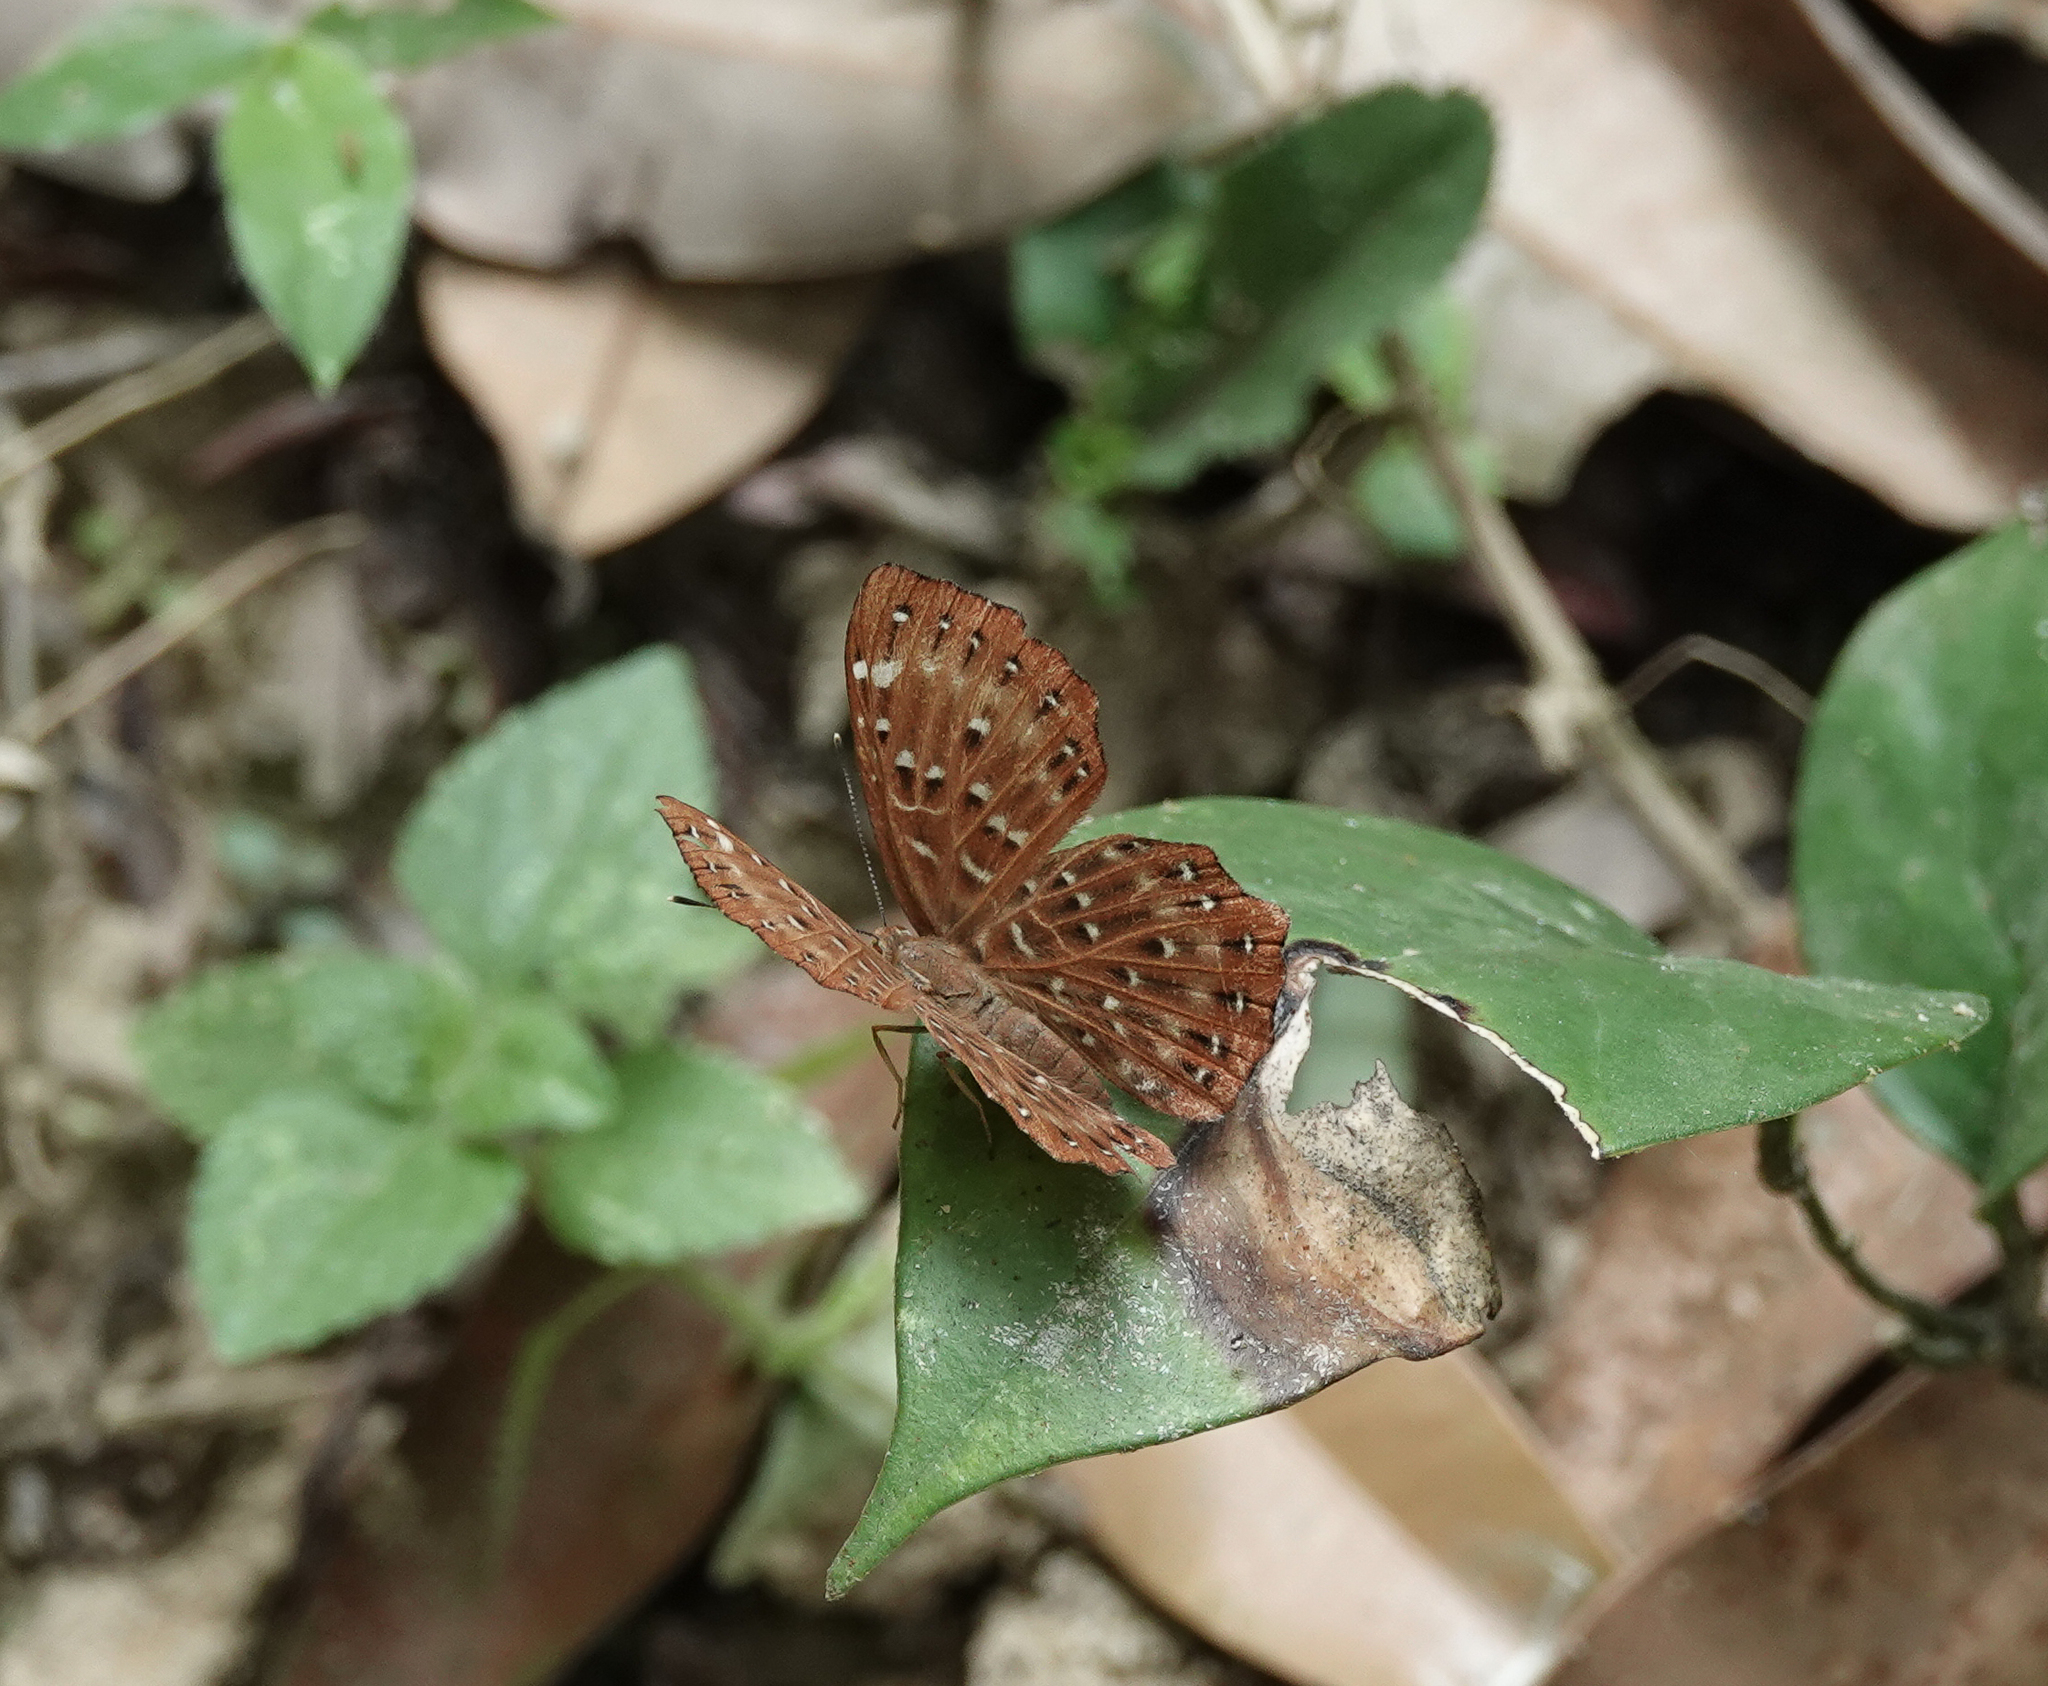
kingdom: Animalia
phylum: Arthropoda
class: Insecta
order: Lepidoptera
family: Riodinidae
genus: Zemeros
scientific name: Zemeros flegyas
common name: Punchinello
